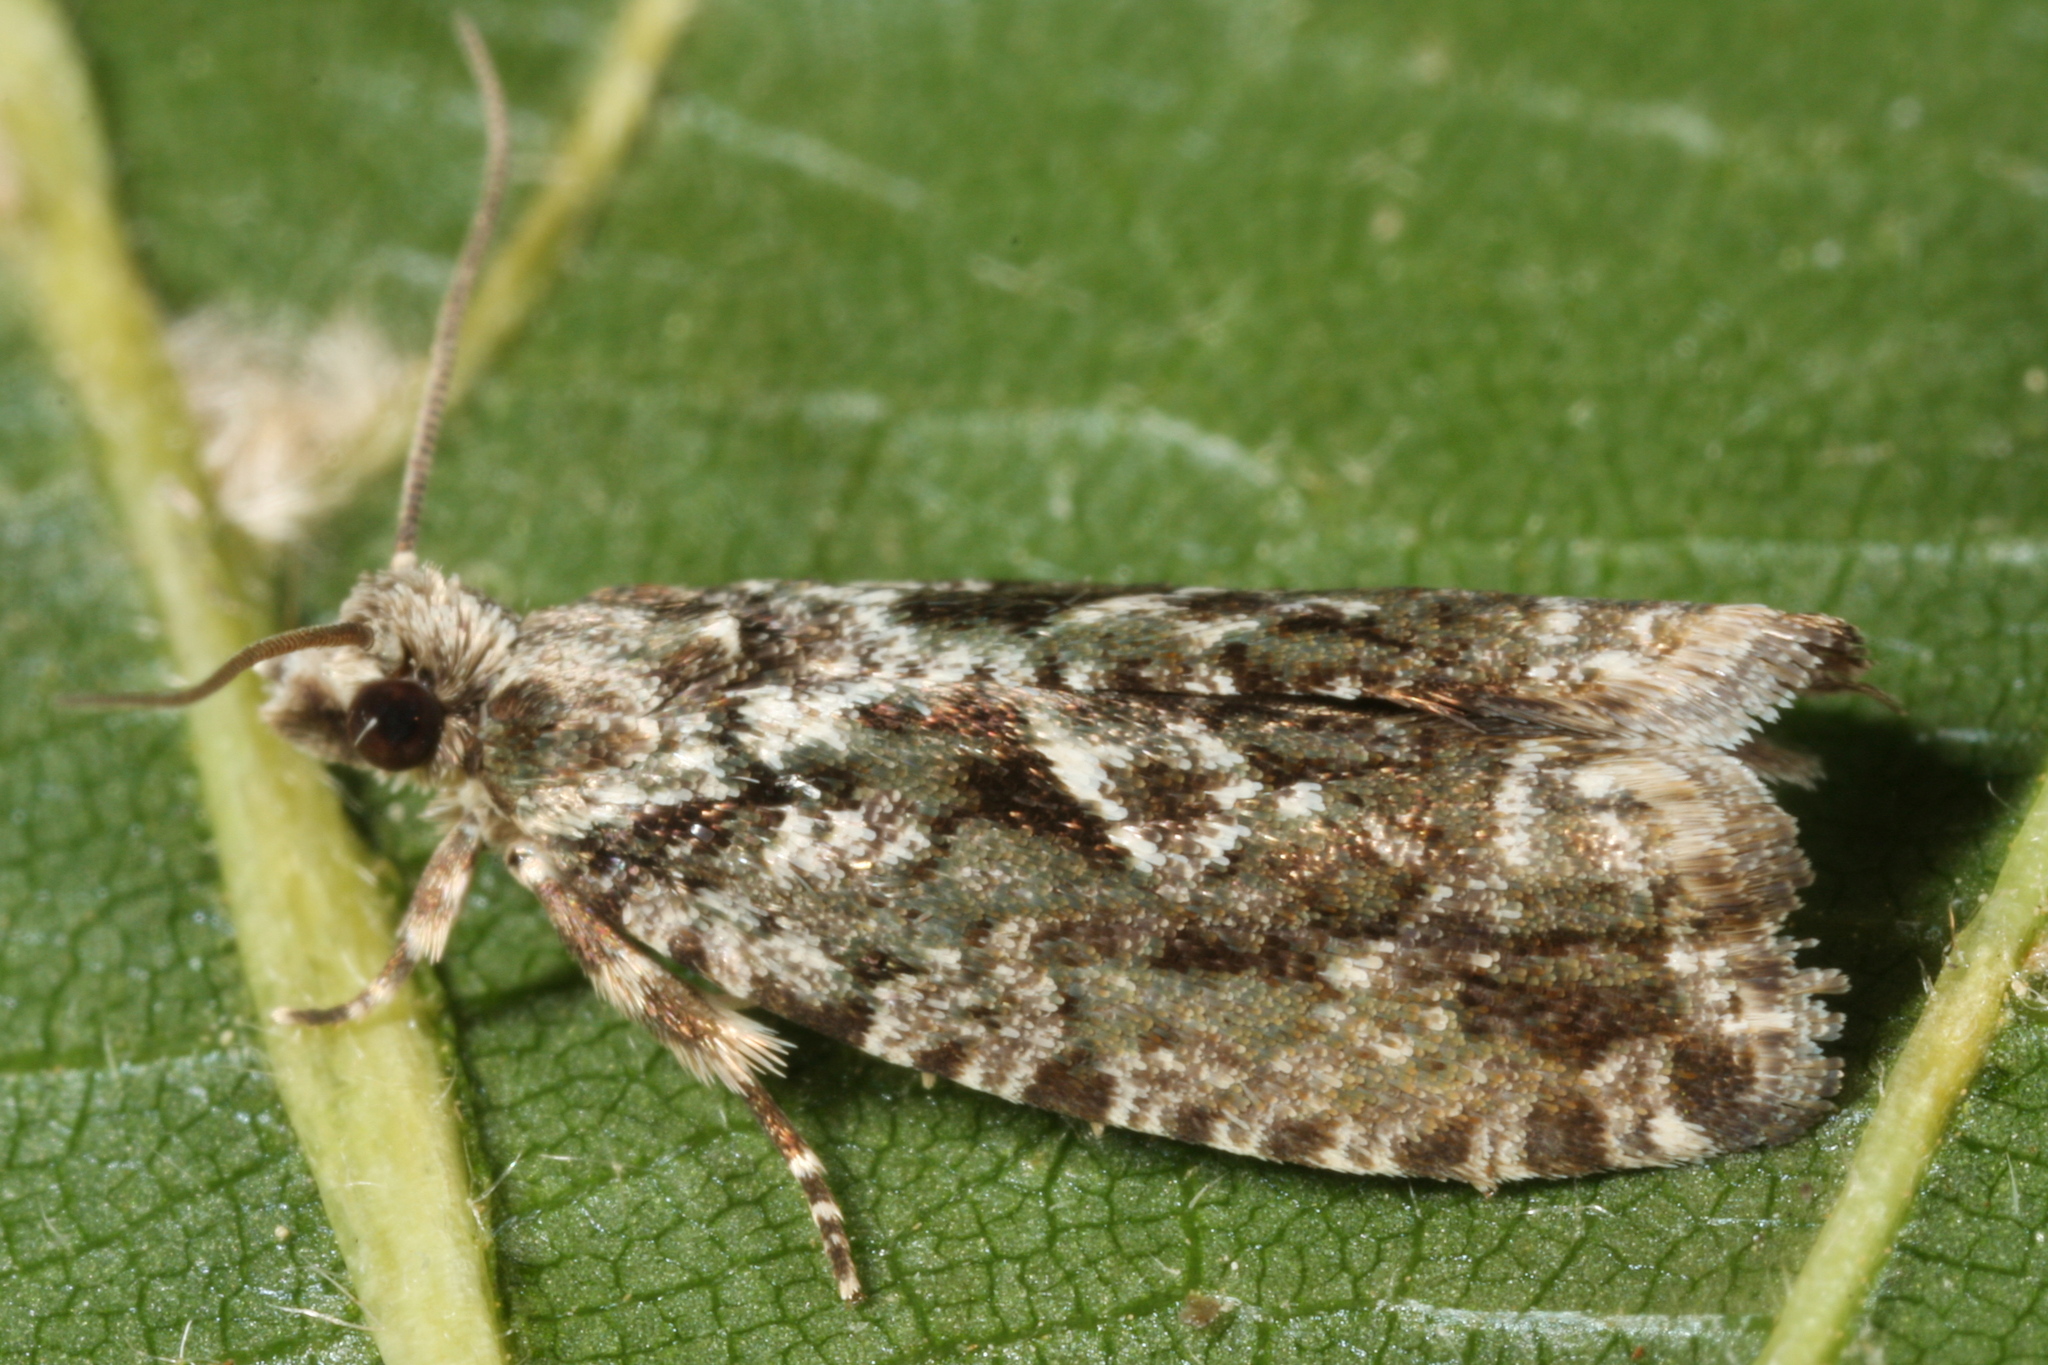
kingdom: Animalia
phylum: Arthropoda
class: Insecta
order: Lepidoptera
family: Tortricidae
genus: Zeiraphera
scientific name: Zeiraphera isertana
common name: Cock's-head bell
